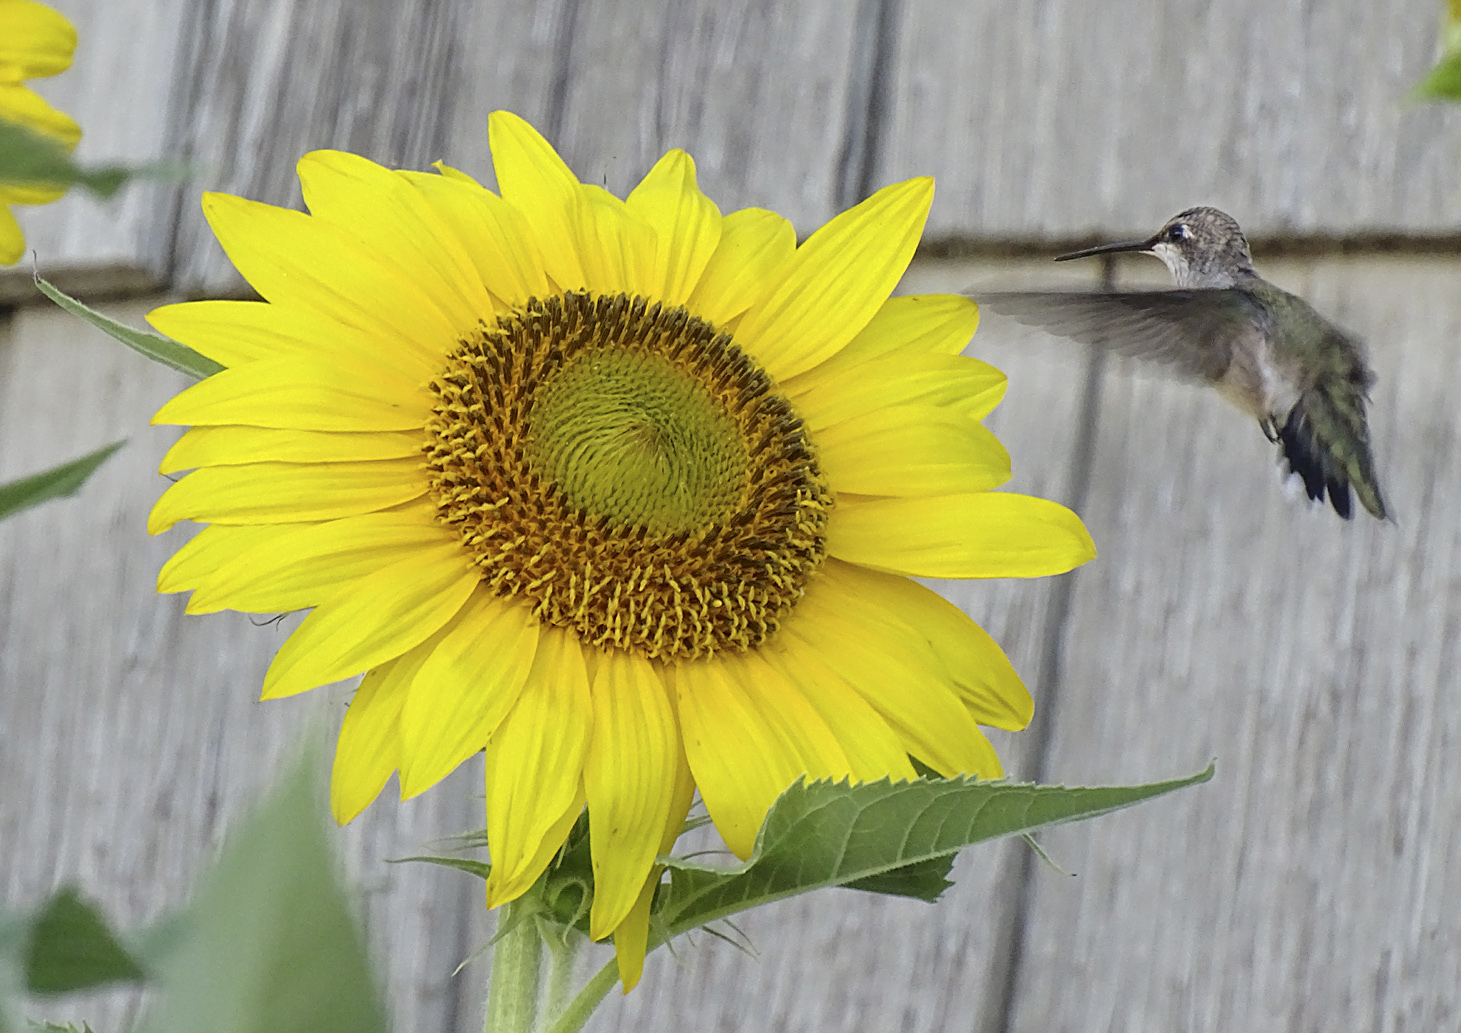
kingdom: Animalia
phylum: Chordata
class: Aves
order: Apodiformes
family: Trochilidae
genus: Archilochus
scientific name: Archilochus alexandri
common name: Black-chinned hummingbird
